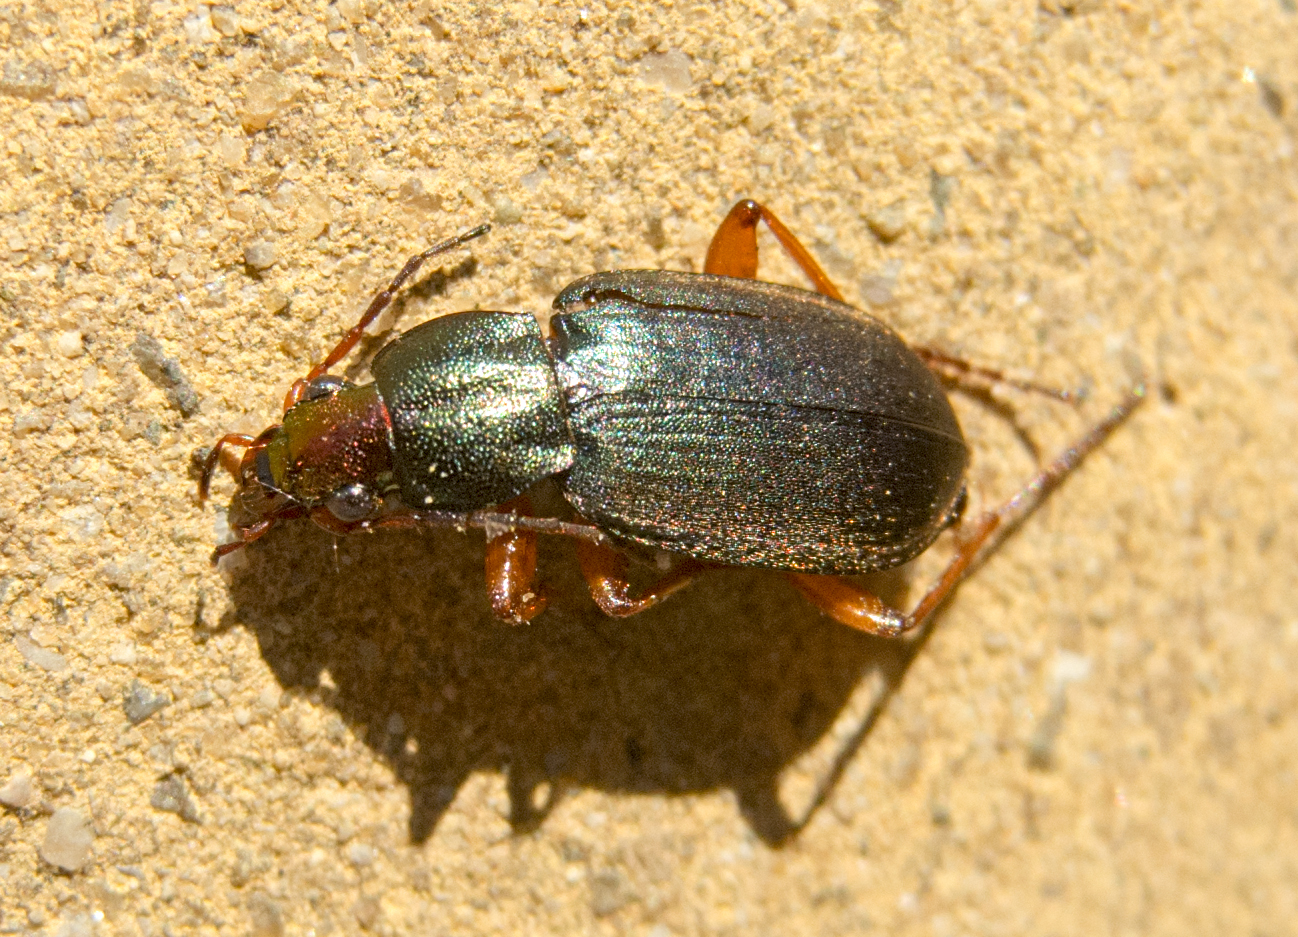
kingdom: Animalia
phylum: Arthropoda
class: Insecta
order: Coleoptera
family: Carabidae
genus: Chlaenius
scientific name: Chlaenius aeneocephalus
